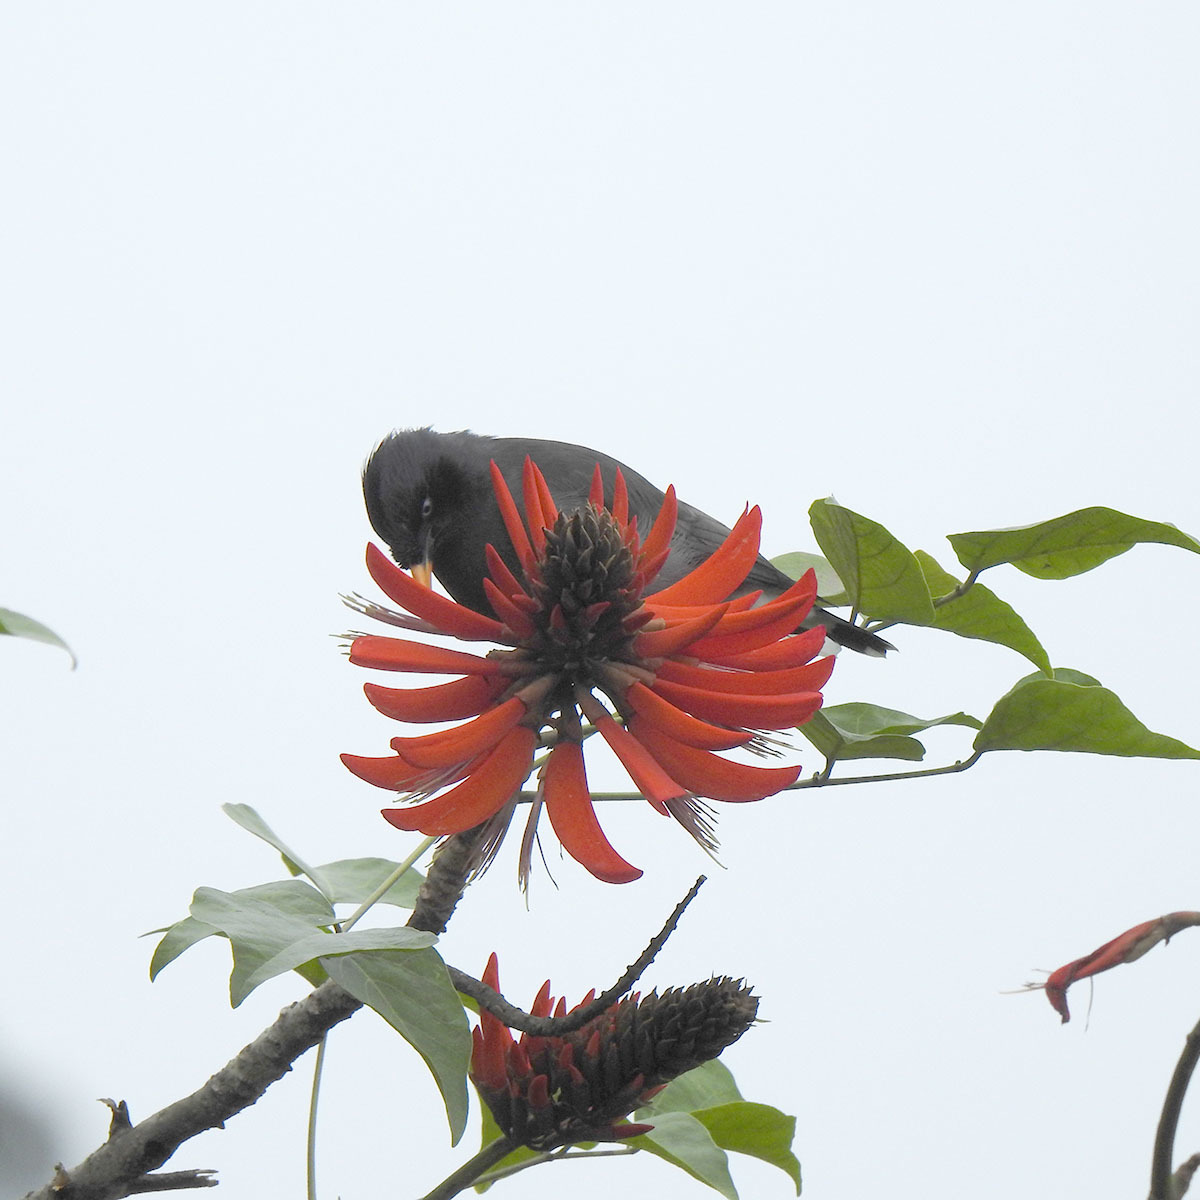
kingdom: Animalia
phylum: Chordata
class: Aves
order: Passeriformes
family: Sturnidae
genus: Acridotheres
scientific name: Acridotheres fuscus
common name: Jungle myna
